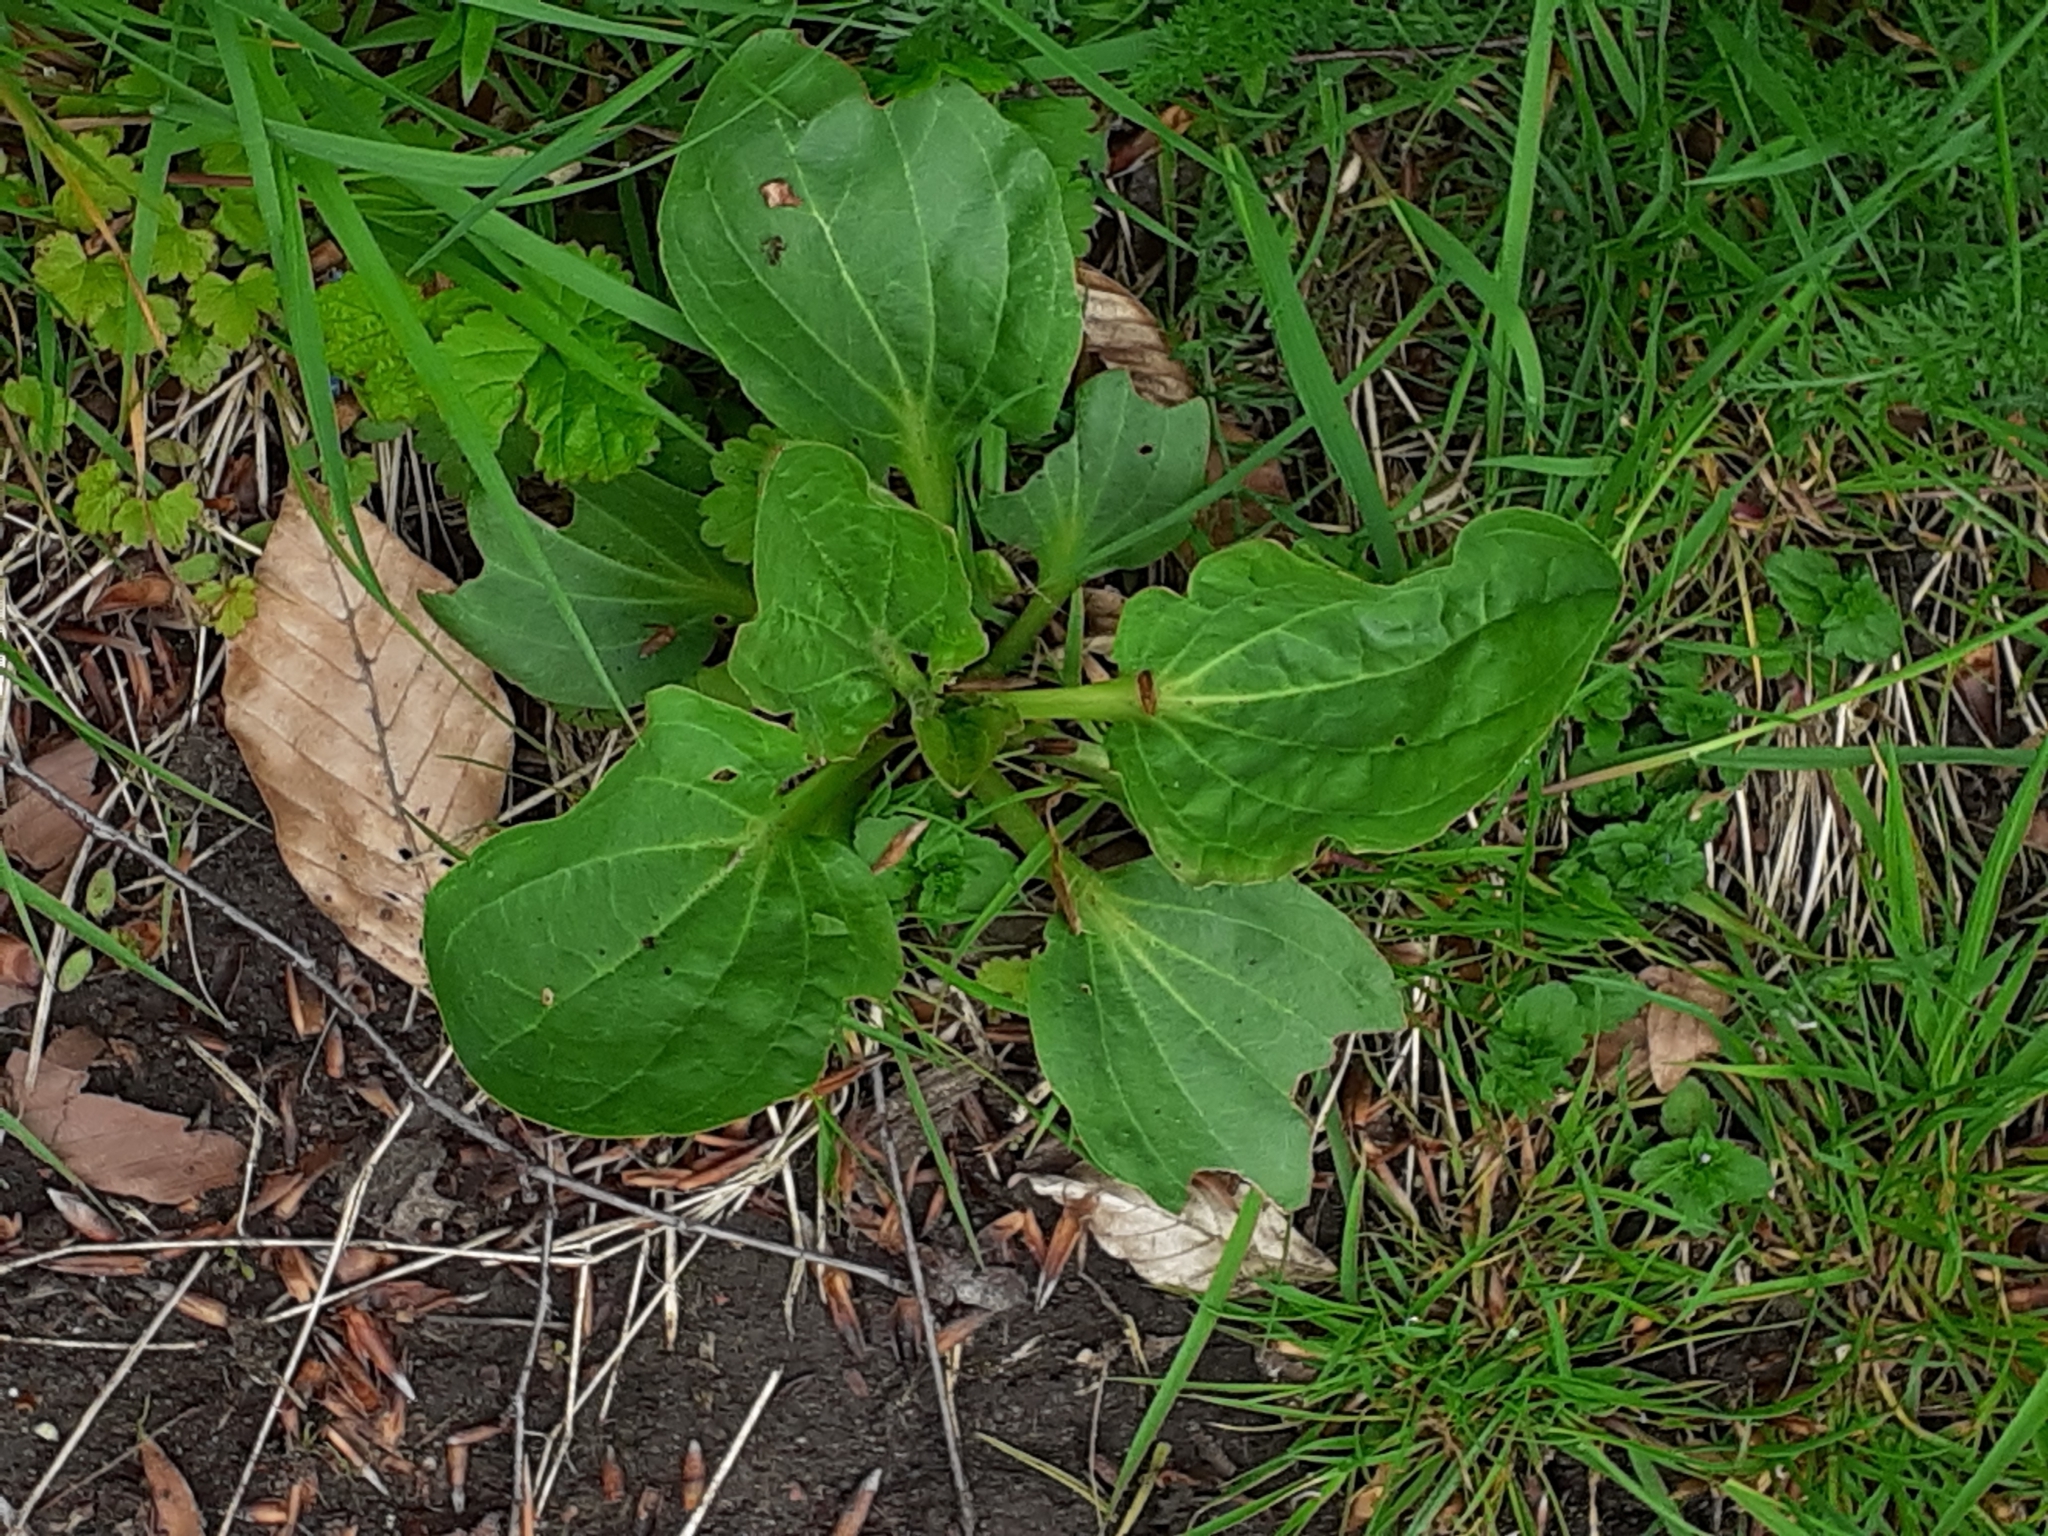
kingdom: Plantae
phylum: Tracheophyta
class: Magnoliopsida
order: Lamiales
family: Plantaginaceae
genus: Plantago
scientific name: Plantago major
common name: Common plantain
